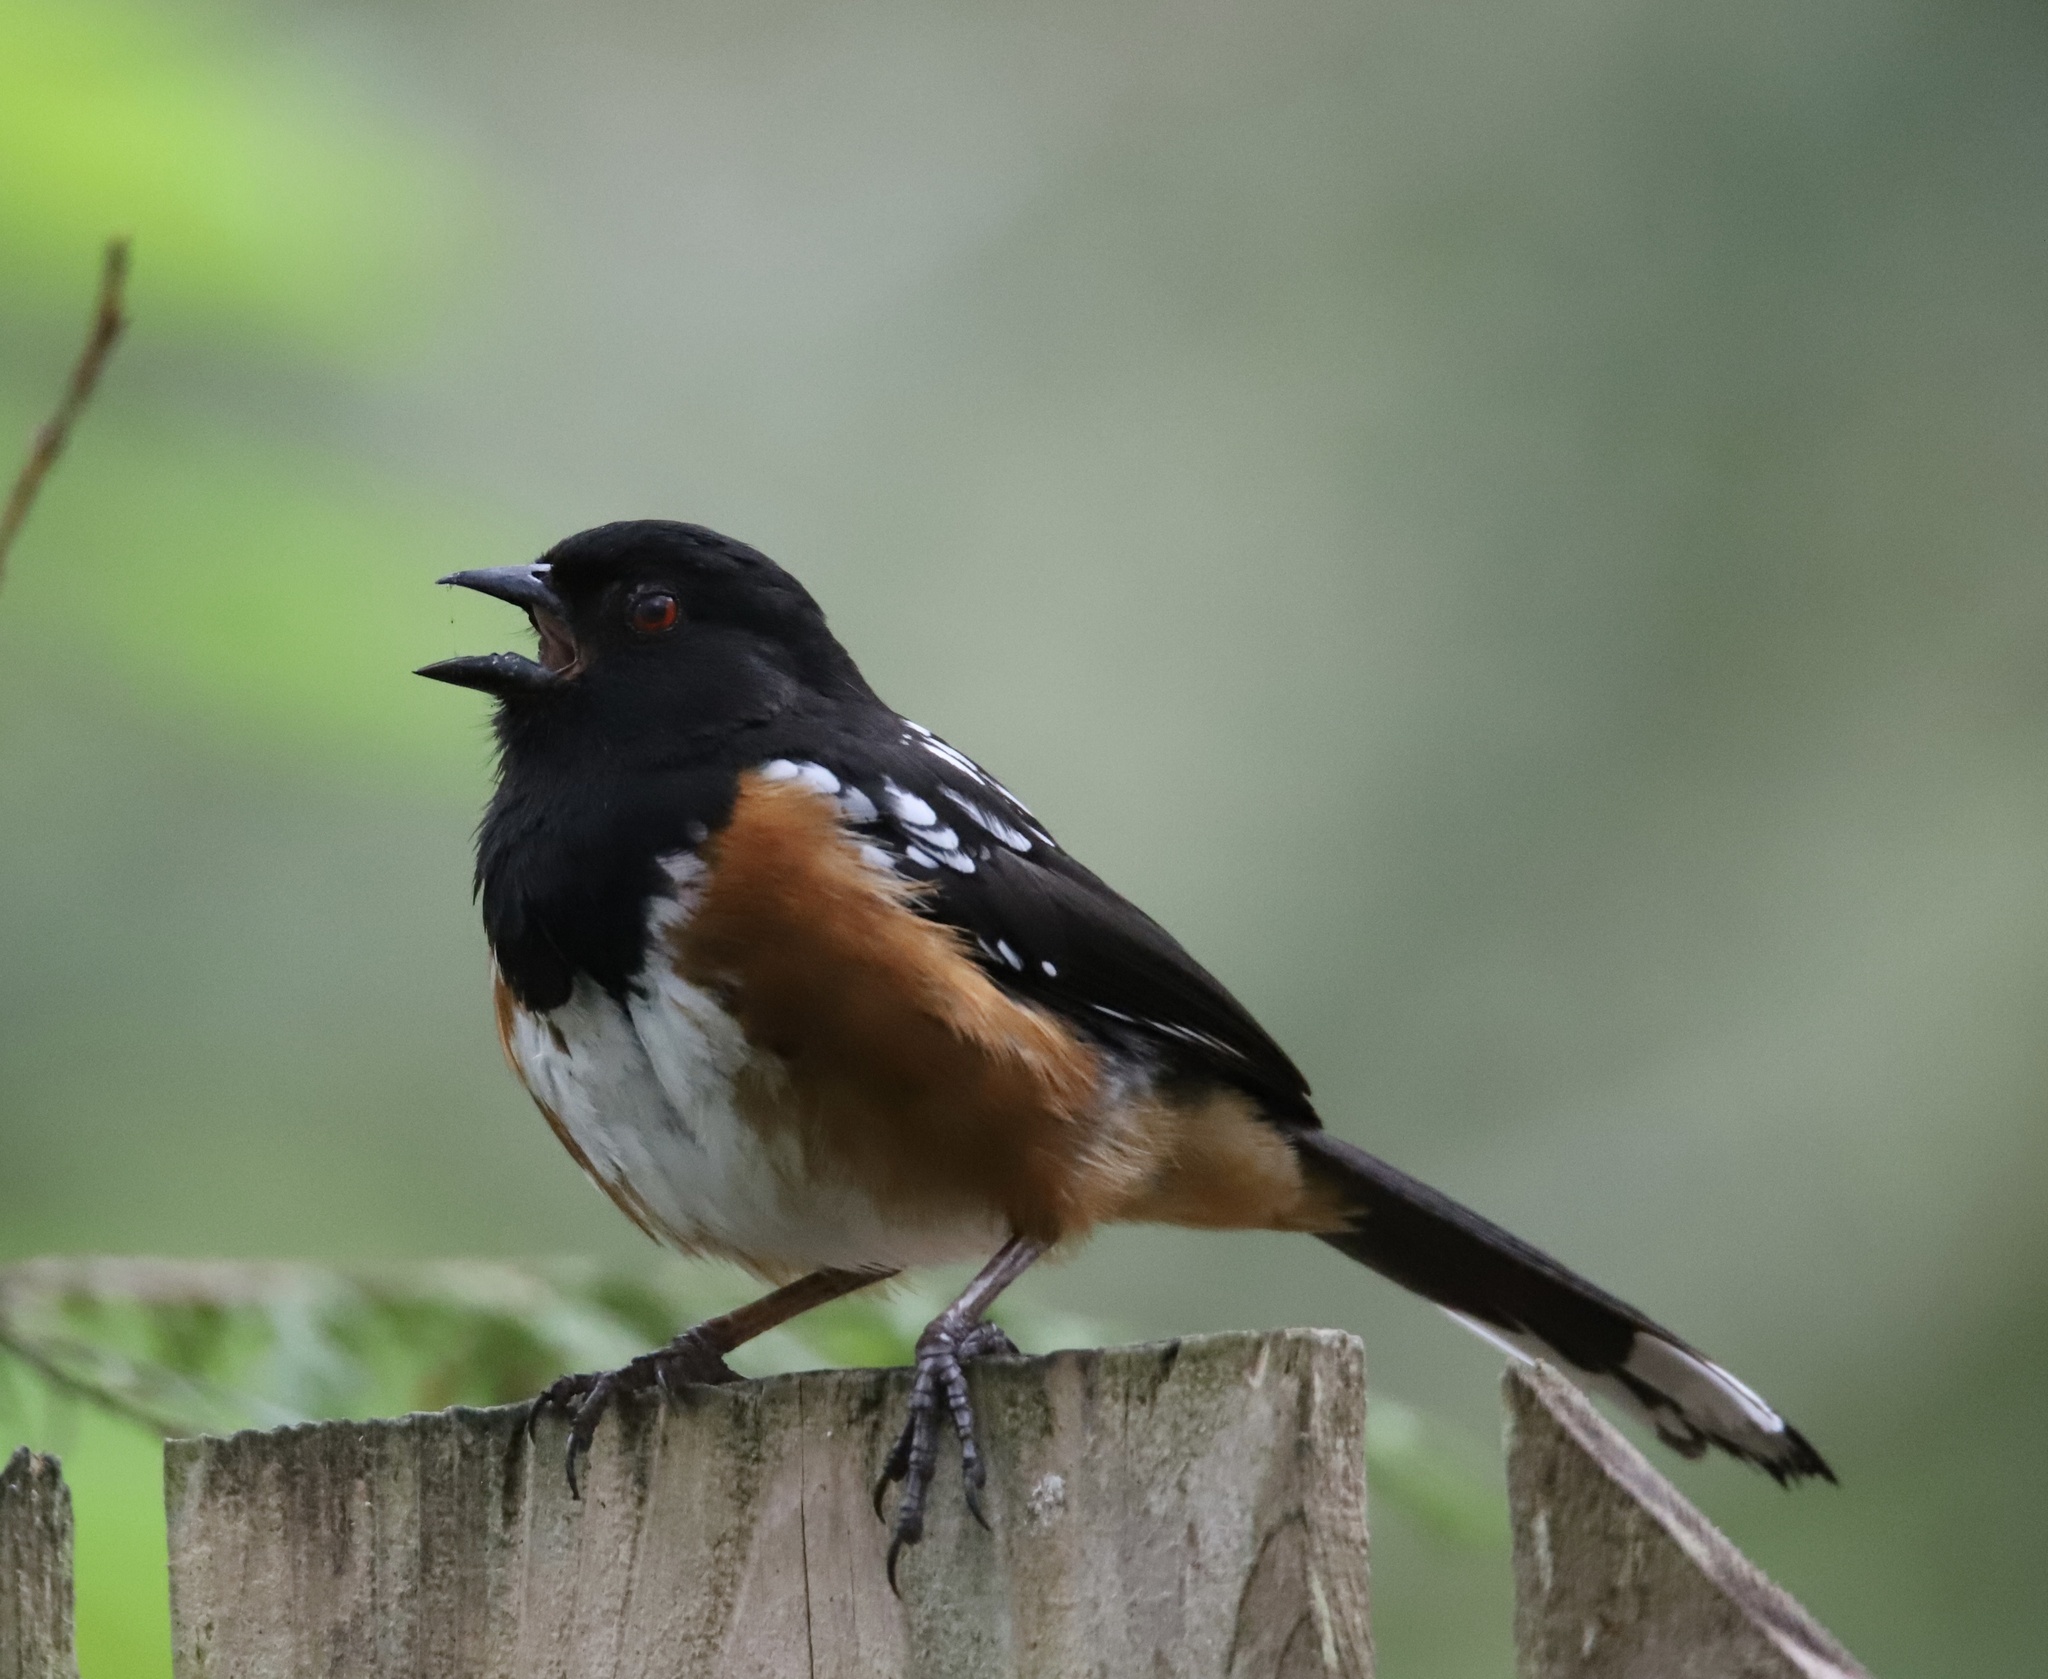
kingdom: Animalia
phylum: Chordata
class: Aves
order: Passeriformes
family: Passerellidae
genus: Pipilo
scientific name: Pipilo maculatus
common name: Spotted towhee
